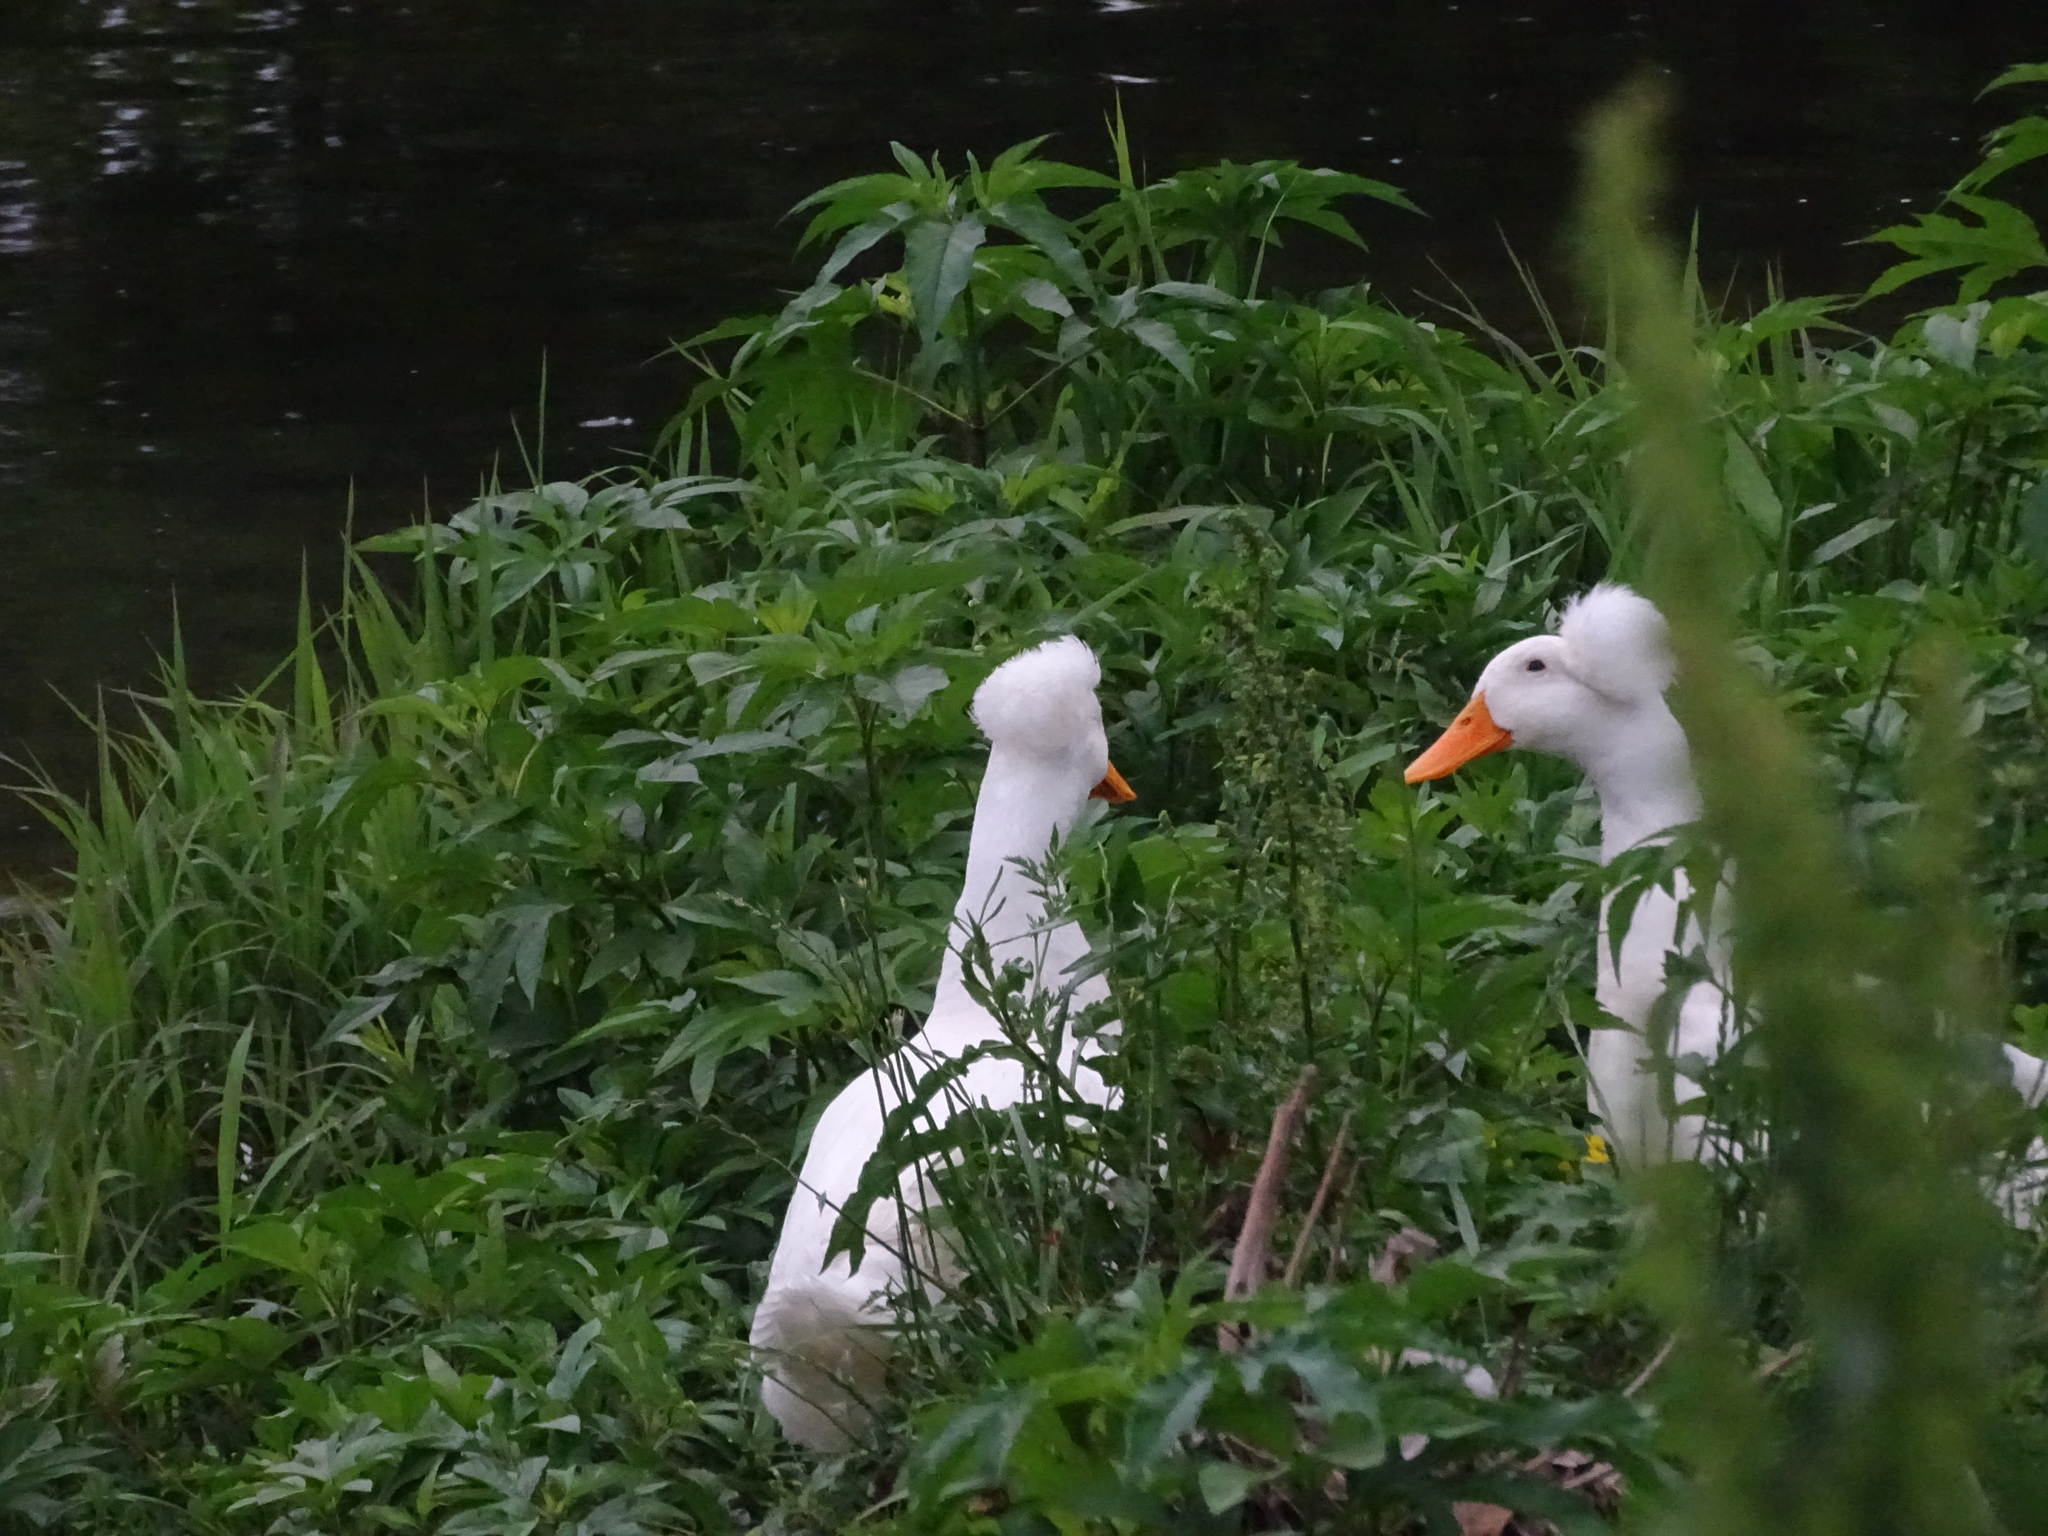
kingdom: Animalia
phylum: Chordata
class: Aves
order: Anseriformes
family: Anatidae
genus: Anas
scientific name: Anas platyrhynchos
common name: Mallard
